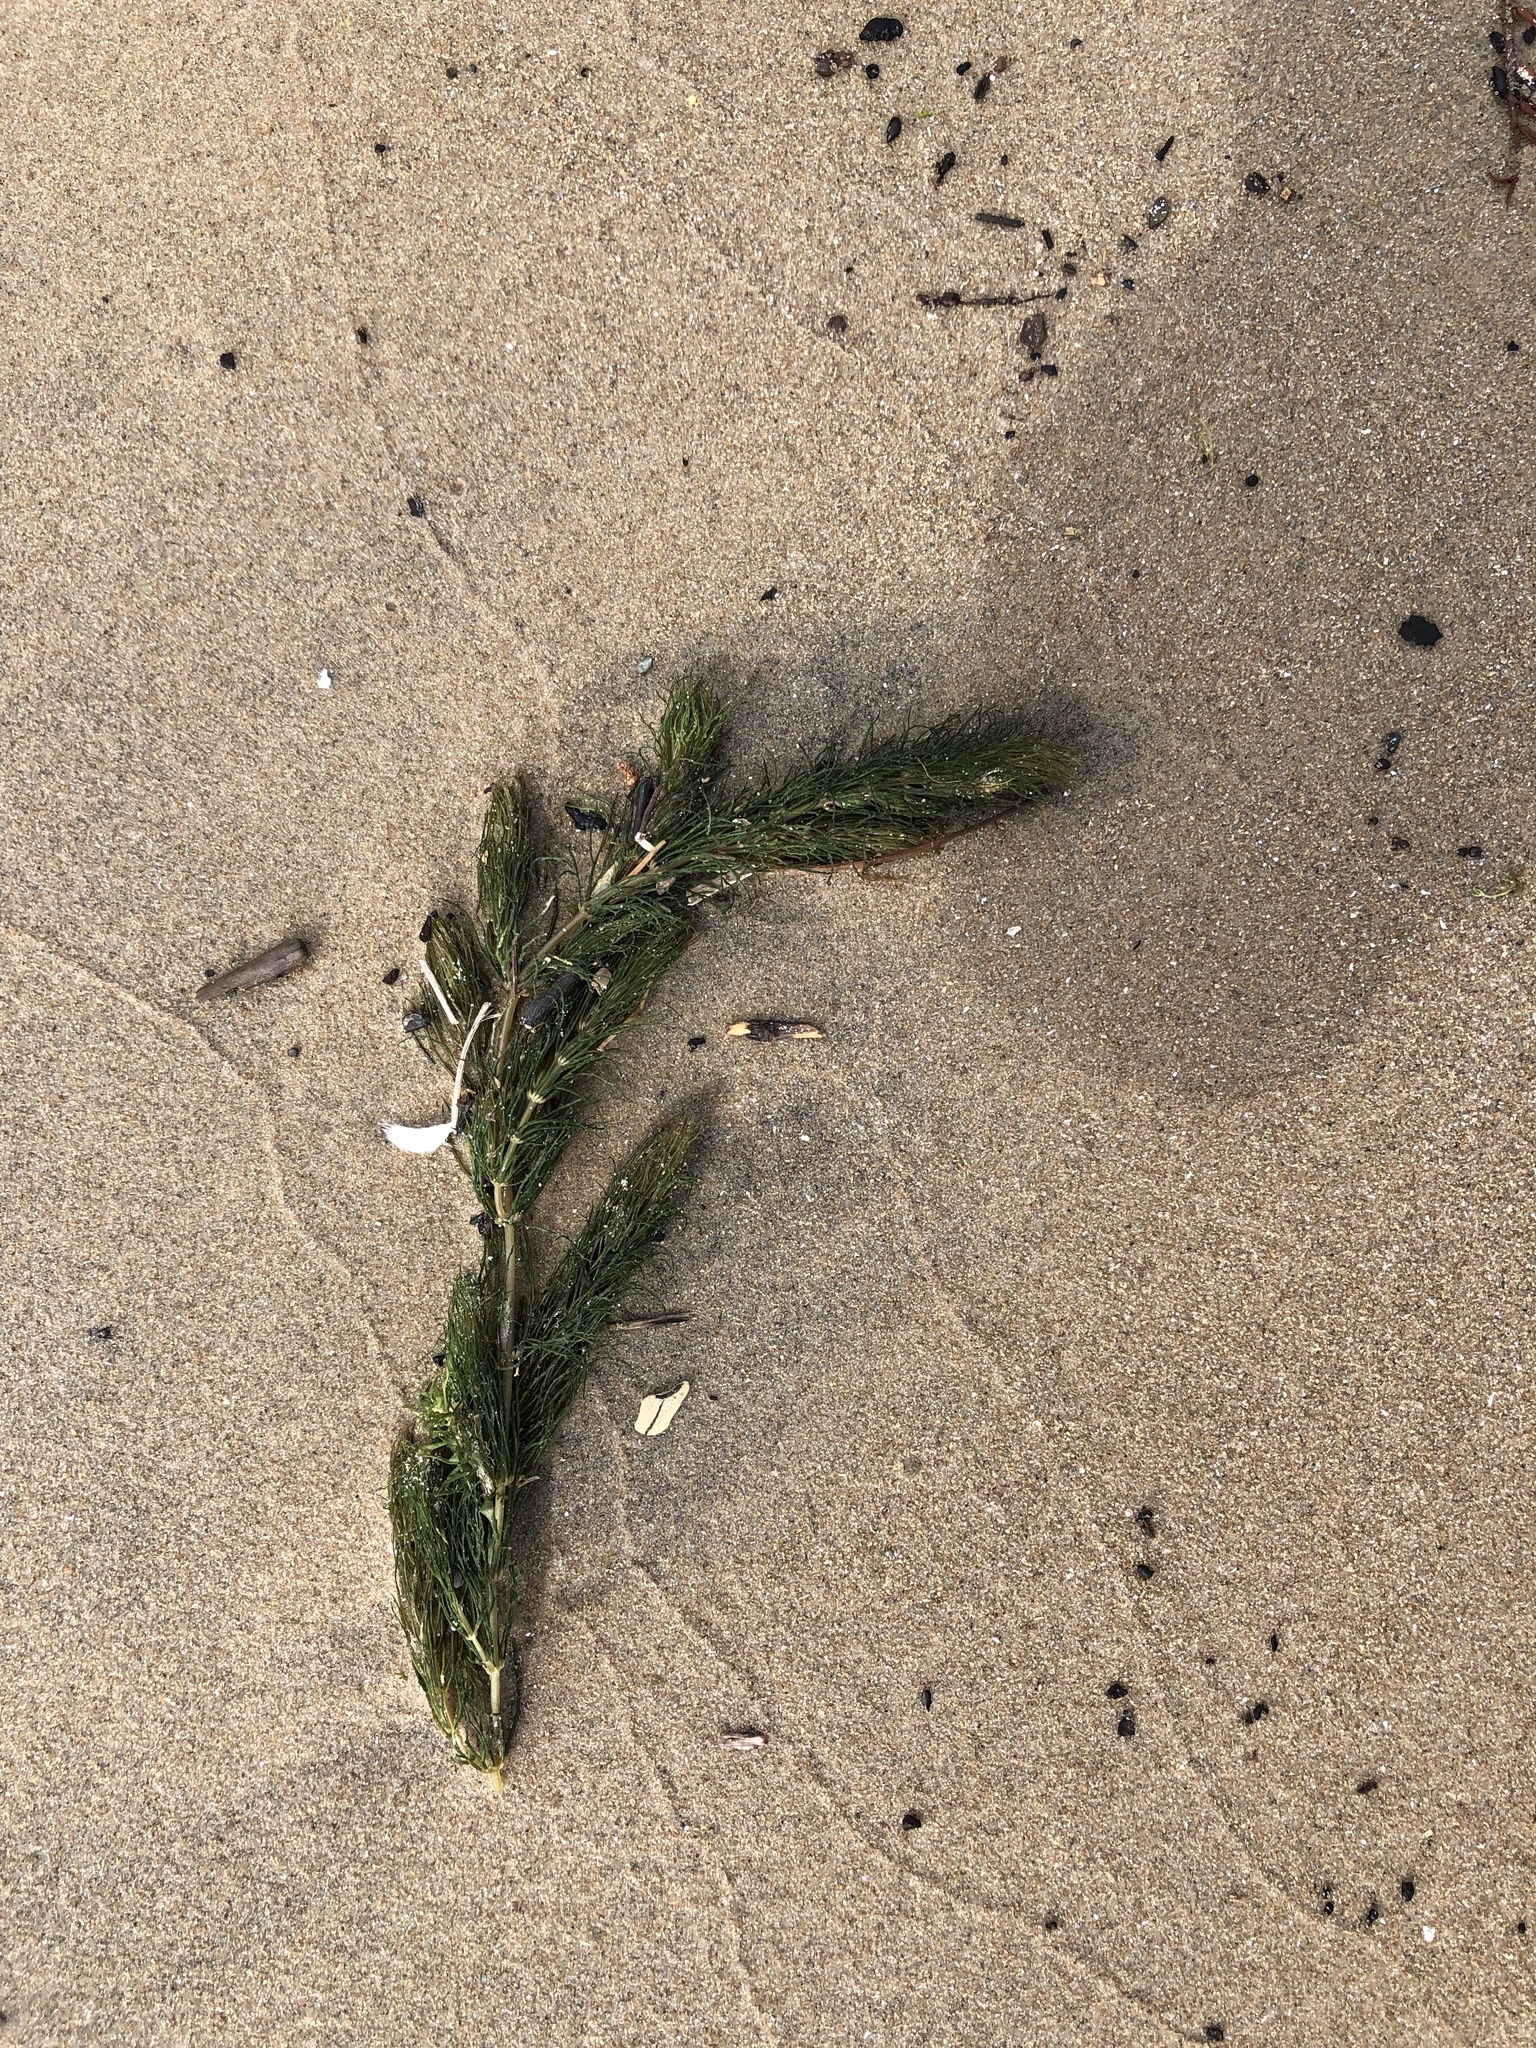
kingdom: Plantae
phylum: Tracheophyta
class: Magnoliopsida
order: Ceratophyllales
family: Ceratophyllaceae
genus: Ceratophyllum
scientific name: Ceratophyllum demersum
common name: Rigid hornwort
